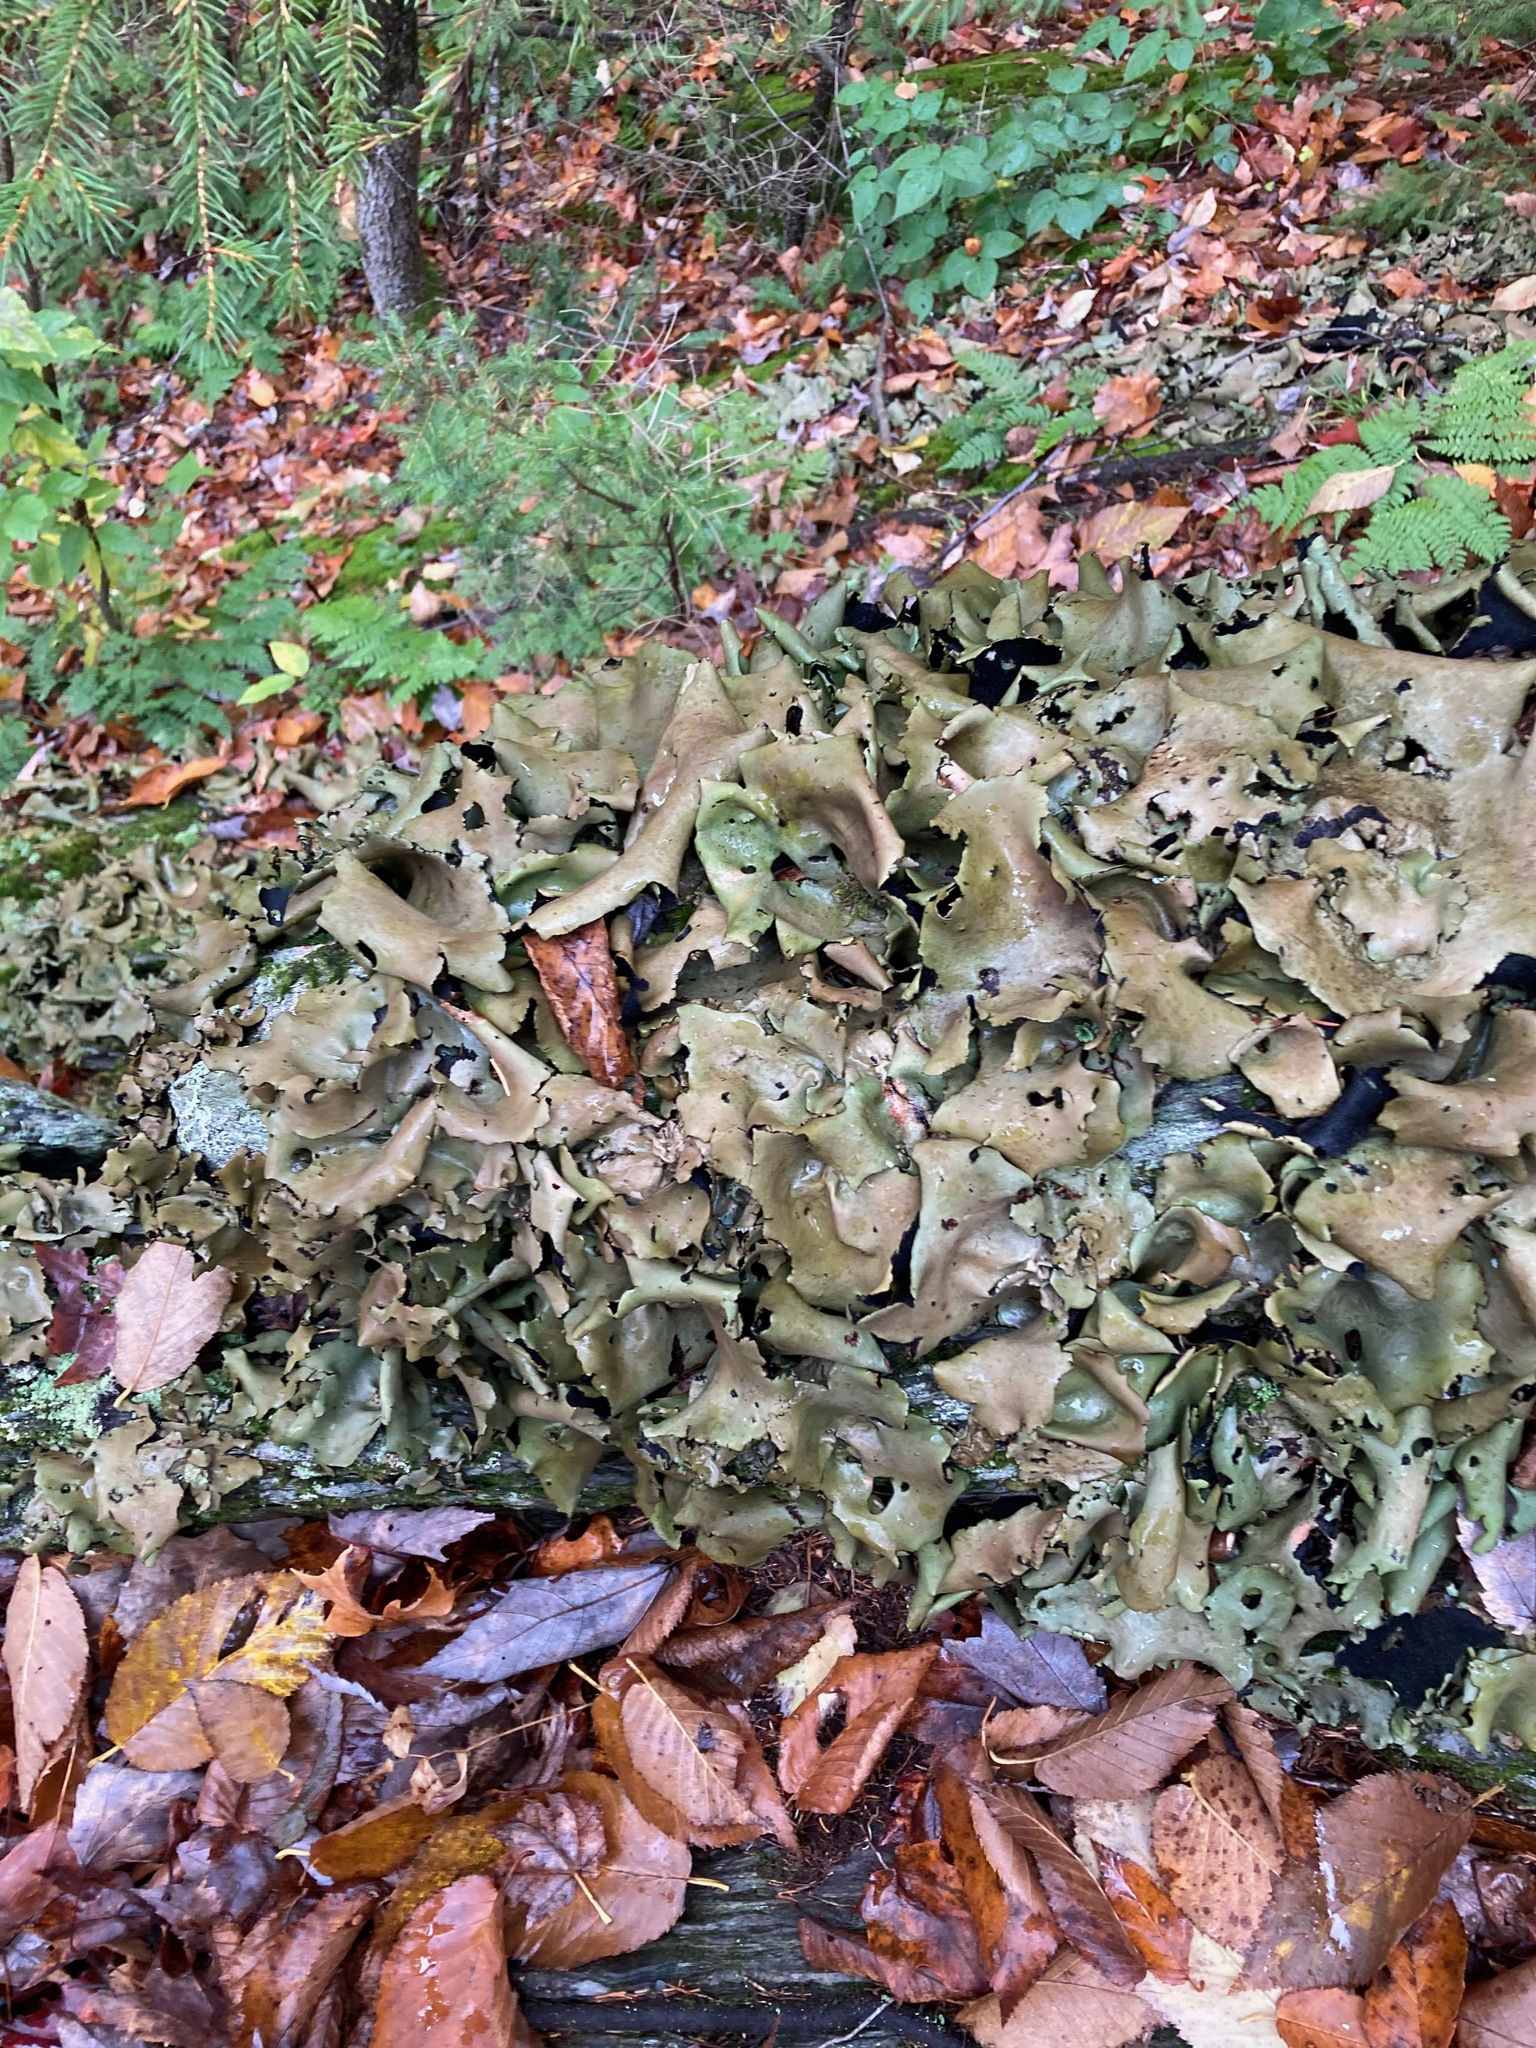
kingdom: Fungi
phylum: Ascomycota
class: Lecanoromycetes
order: Umbilicariales
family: Umbilicariaceae
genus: Umbilicaria
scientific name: Umbilicaria mammulata
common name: Smooth rock tripe
